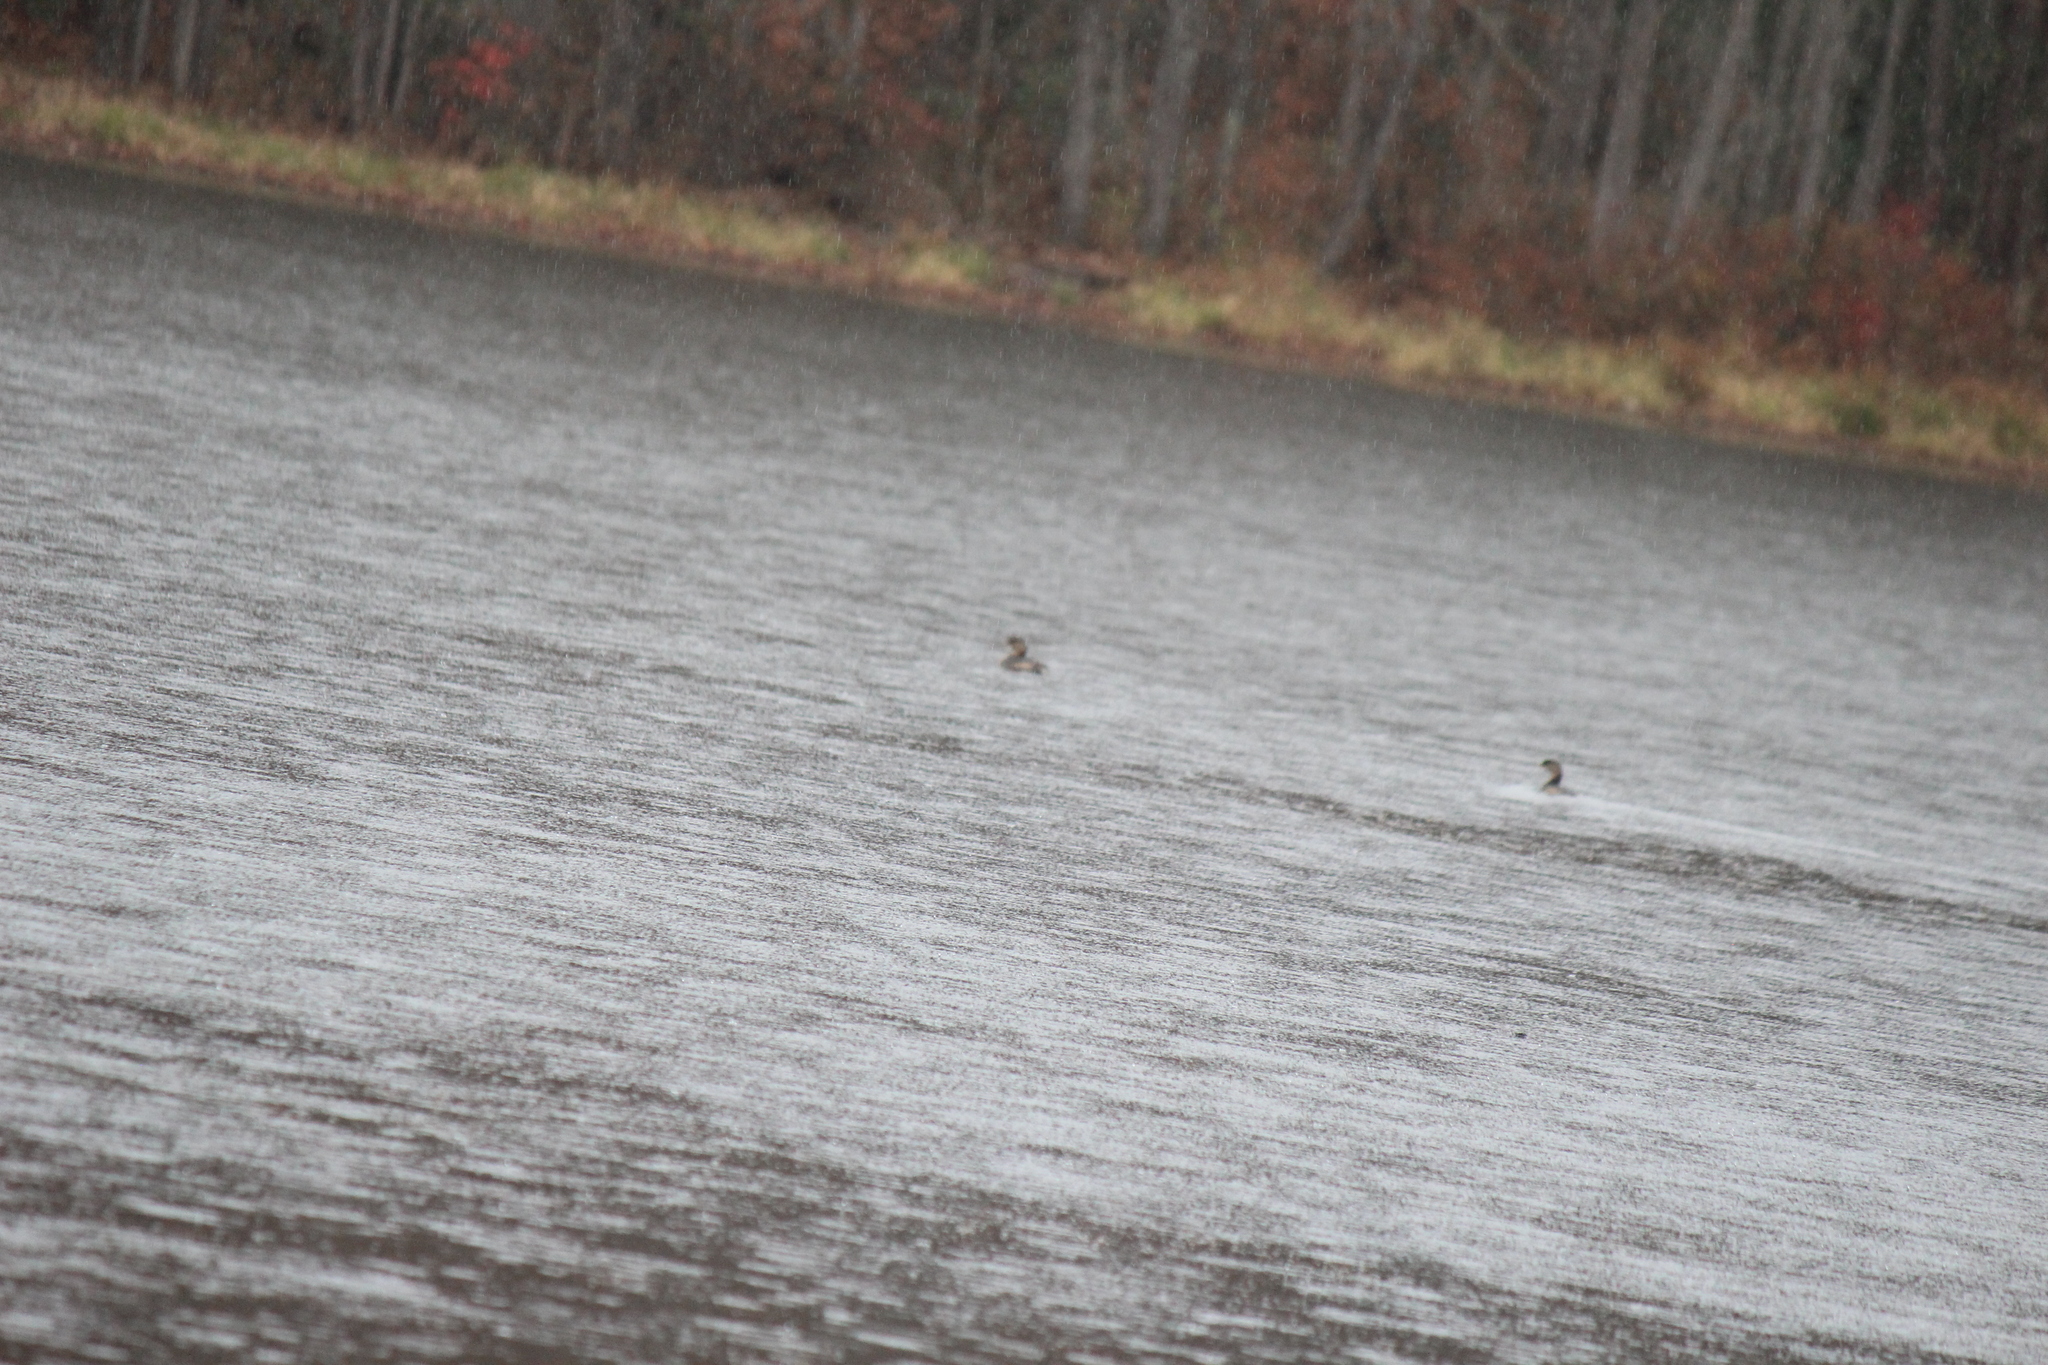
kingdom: Animalia
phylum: Chordata
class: Aves
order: Podicipediformes
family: Podicipedidae
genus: Podilymbus
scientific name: Podilymbus podiceps
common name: Pied-billed grebe
